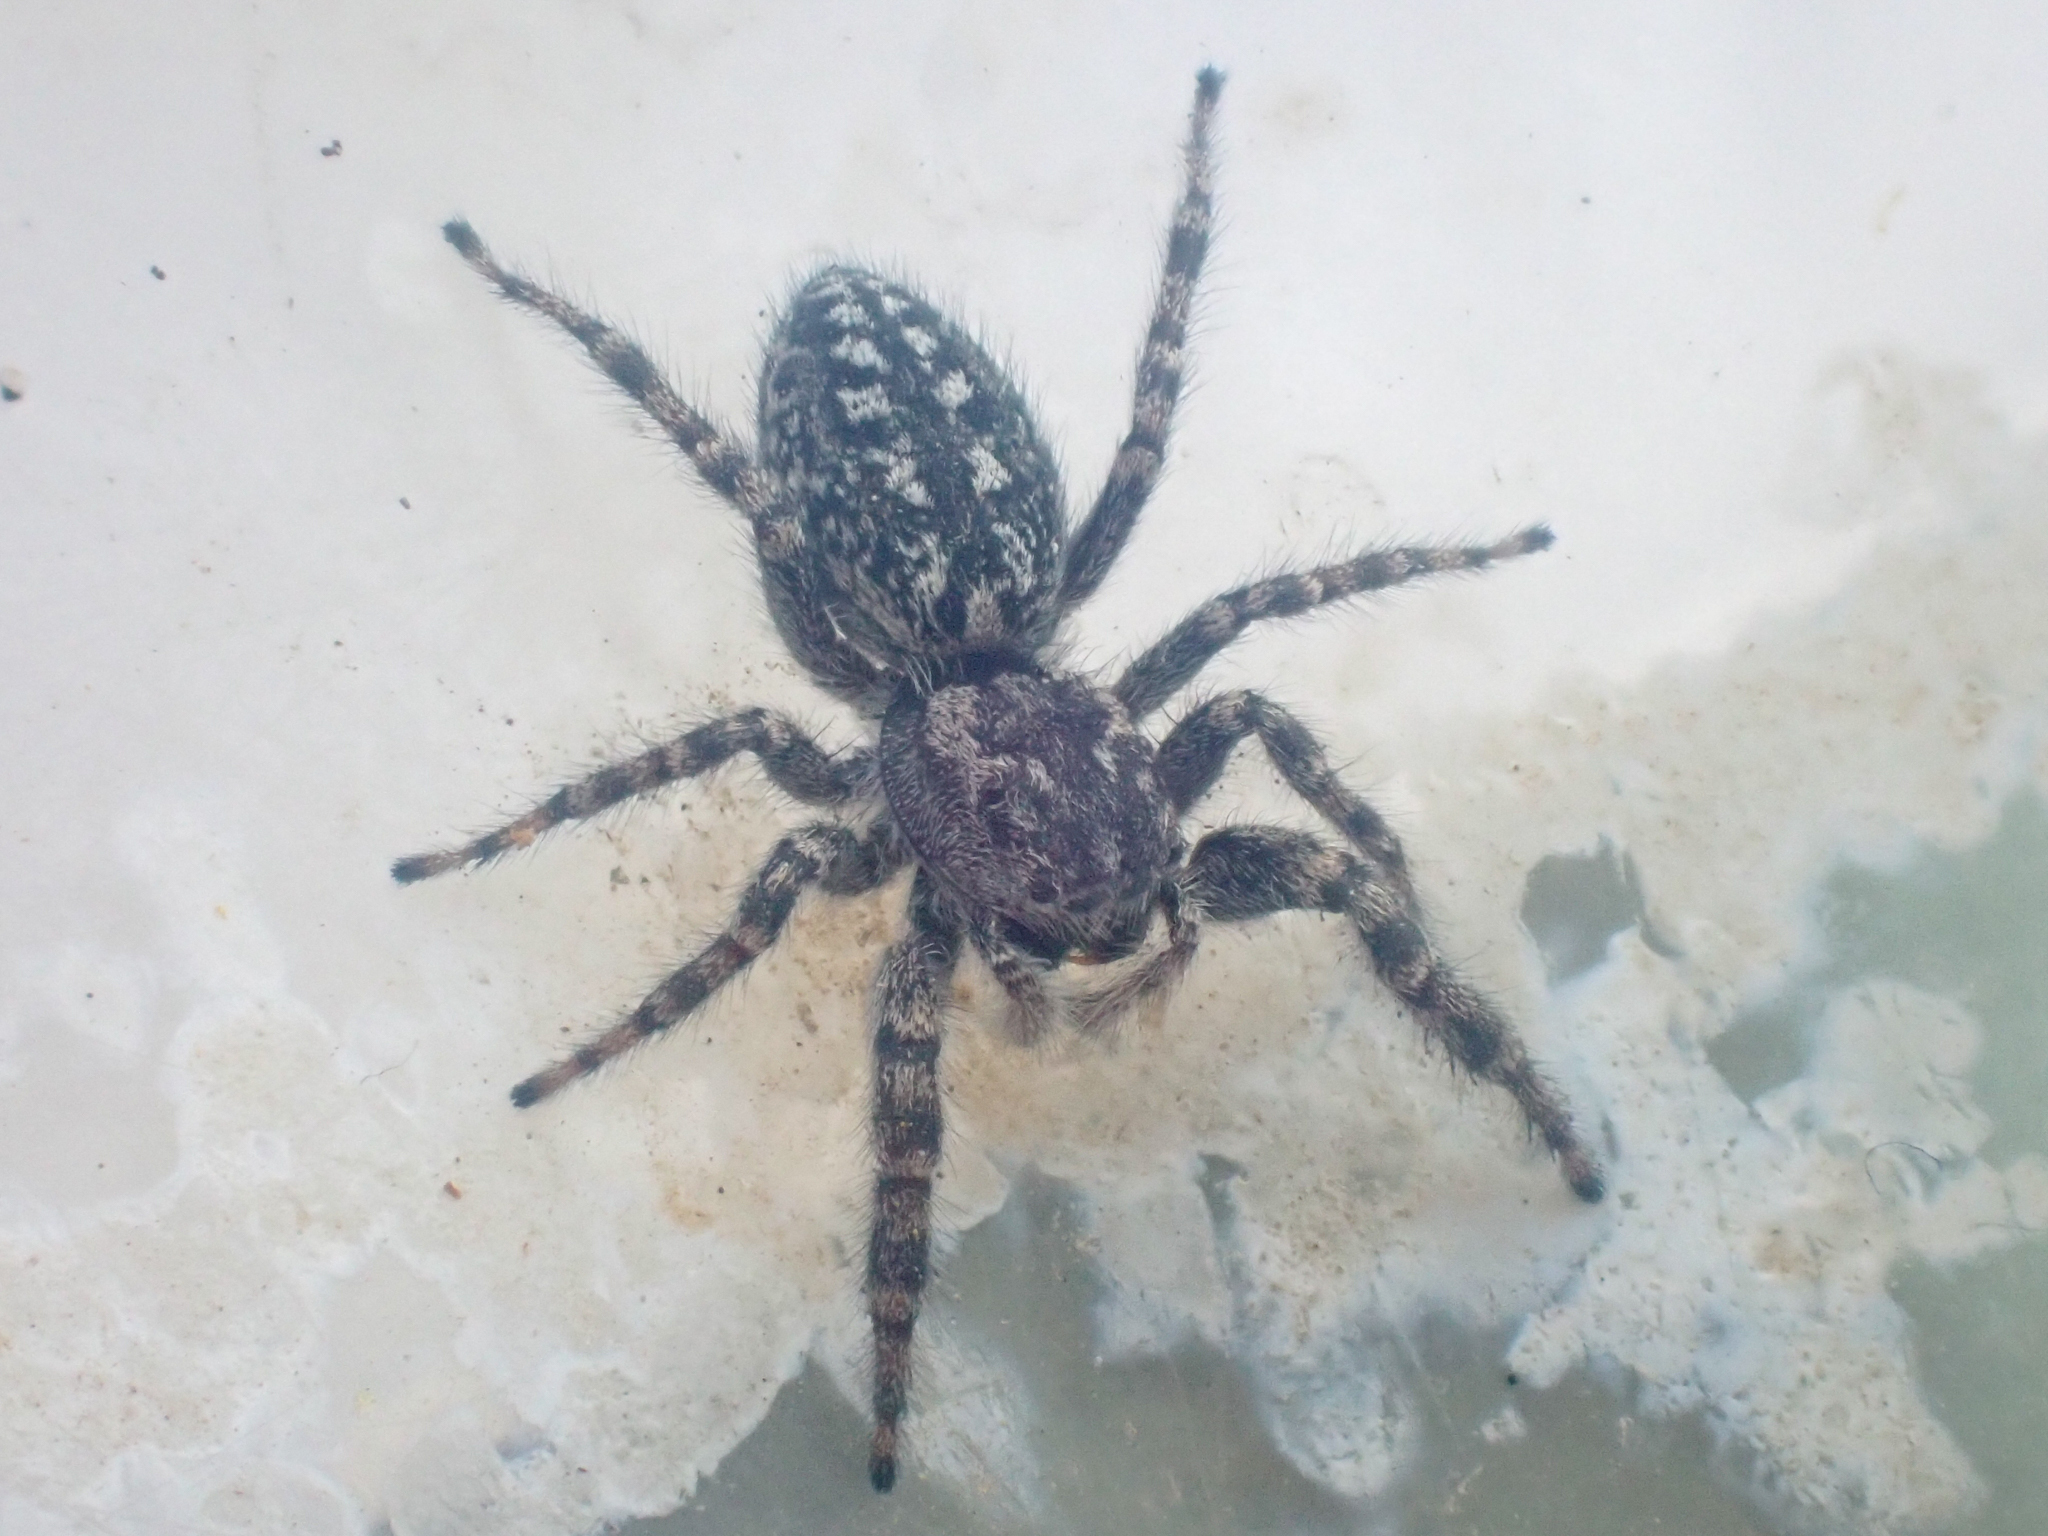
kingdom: Animalia
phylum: Arthropoda
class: Arachnida
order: Araneae
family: Salticidae
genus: Terralonus
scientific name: Terralonus mylothrus
